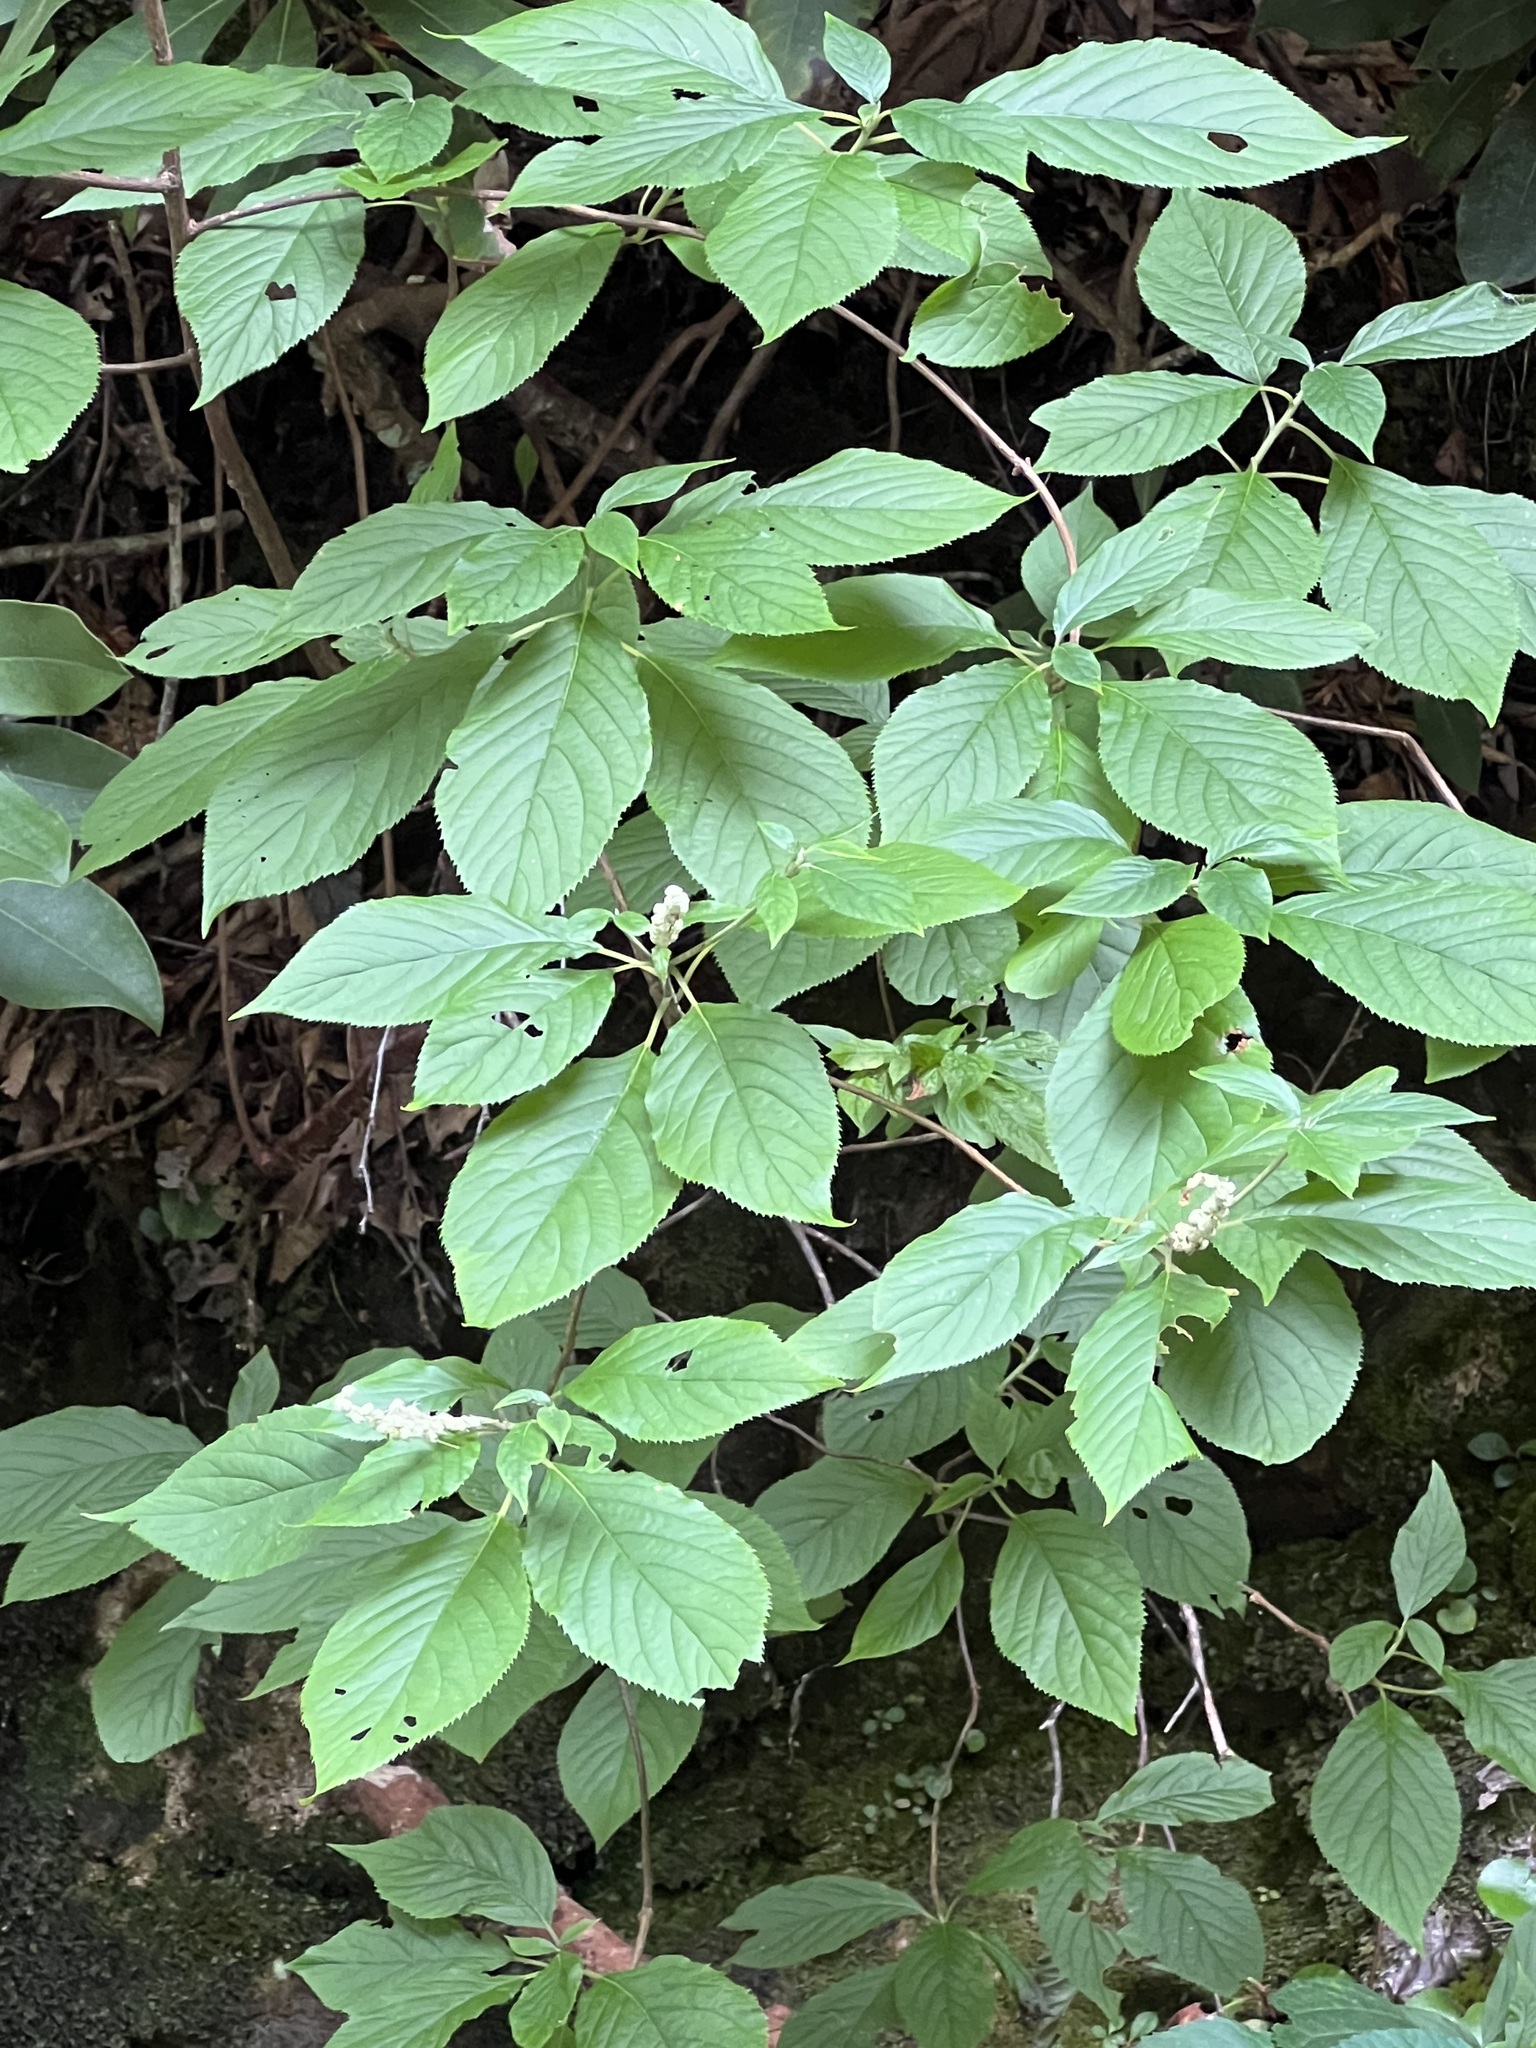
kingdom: Plantae
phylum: Tracheophyta
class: Magnoliopsida
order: Ericales
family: Clethraceae
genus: Clethra
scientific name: Clethra acuminata
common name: Mountain sweet pepperbush
